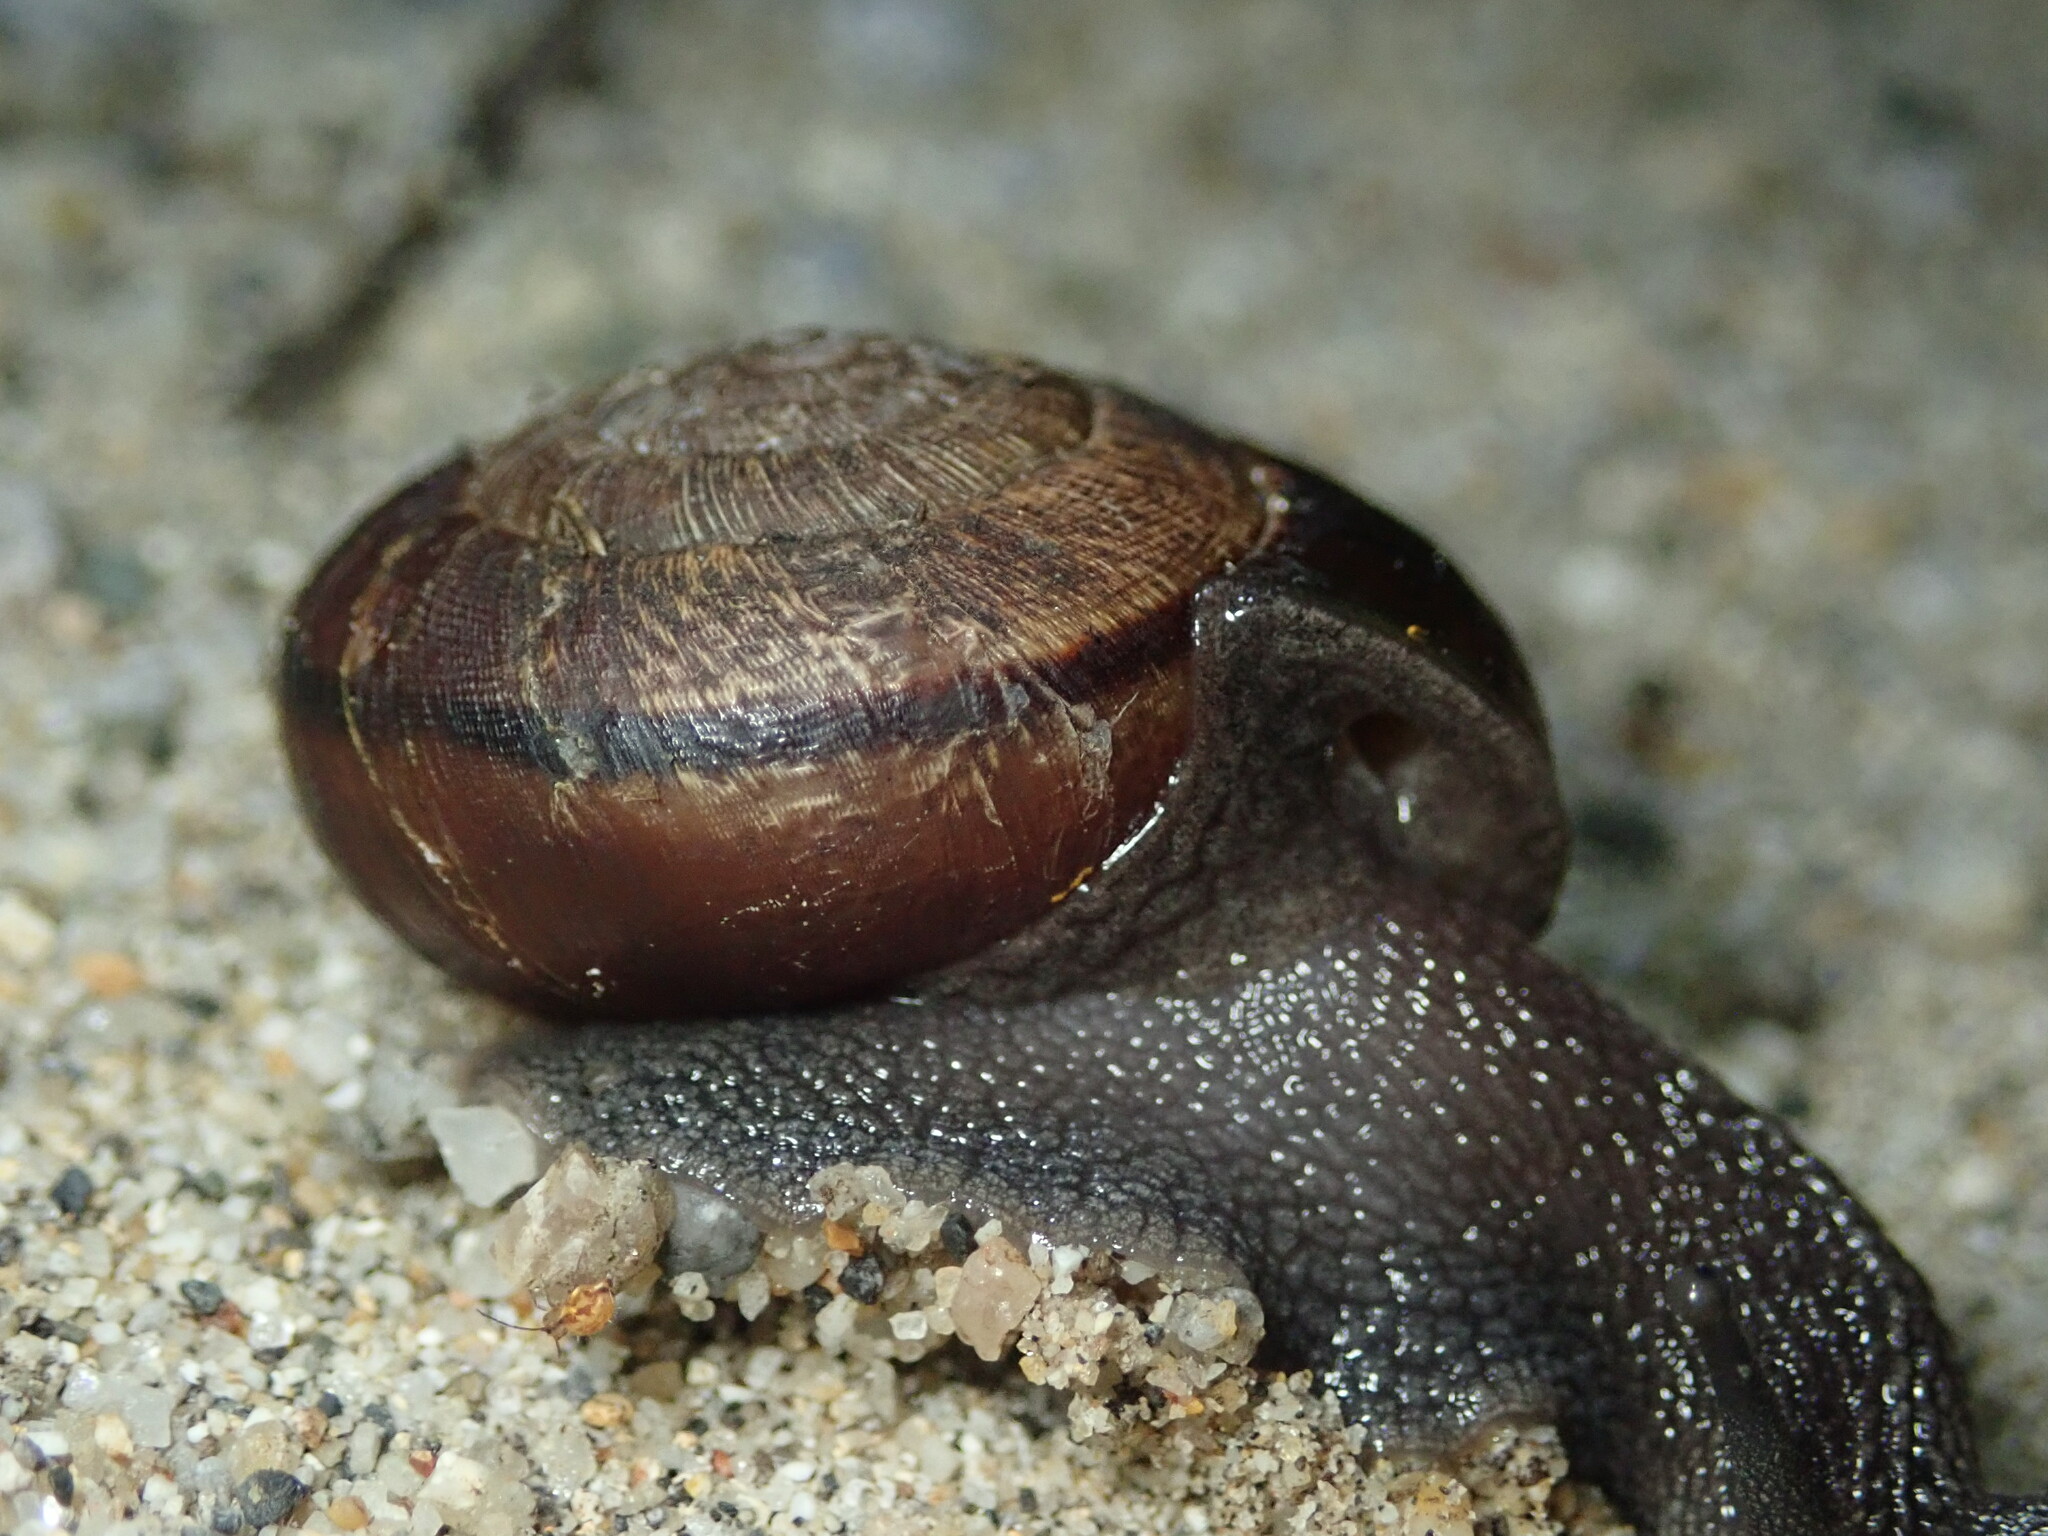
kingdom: Animalia
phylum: Mollusca
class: Gastropoda
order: Stylommatophora
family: Xanthonychidae
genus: Helminthoglypta
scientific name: Helminthoglypta arrosa
